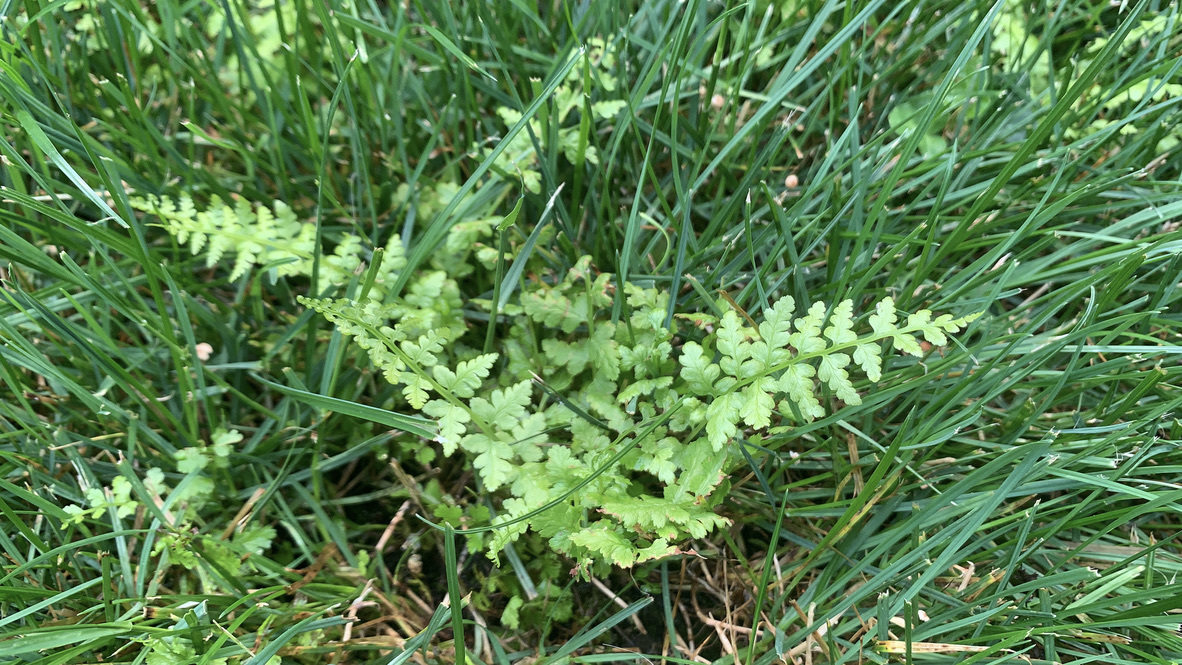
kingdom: Plantae
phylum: Tracheophyta
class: Polypodiopsida
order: Polypodiales
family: Athyriaceae
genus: Athyrium
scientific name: Athyrium cyclosorum
